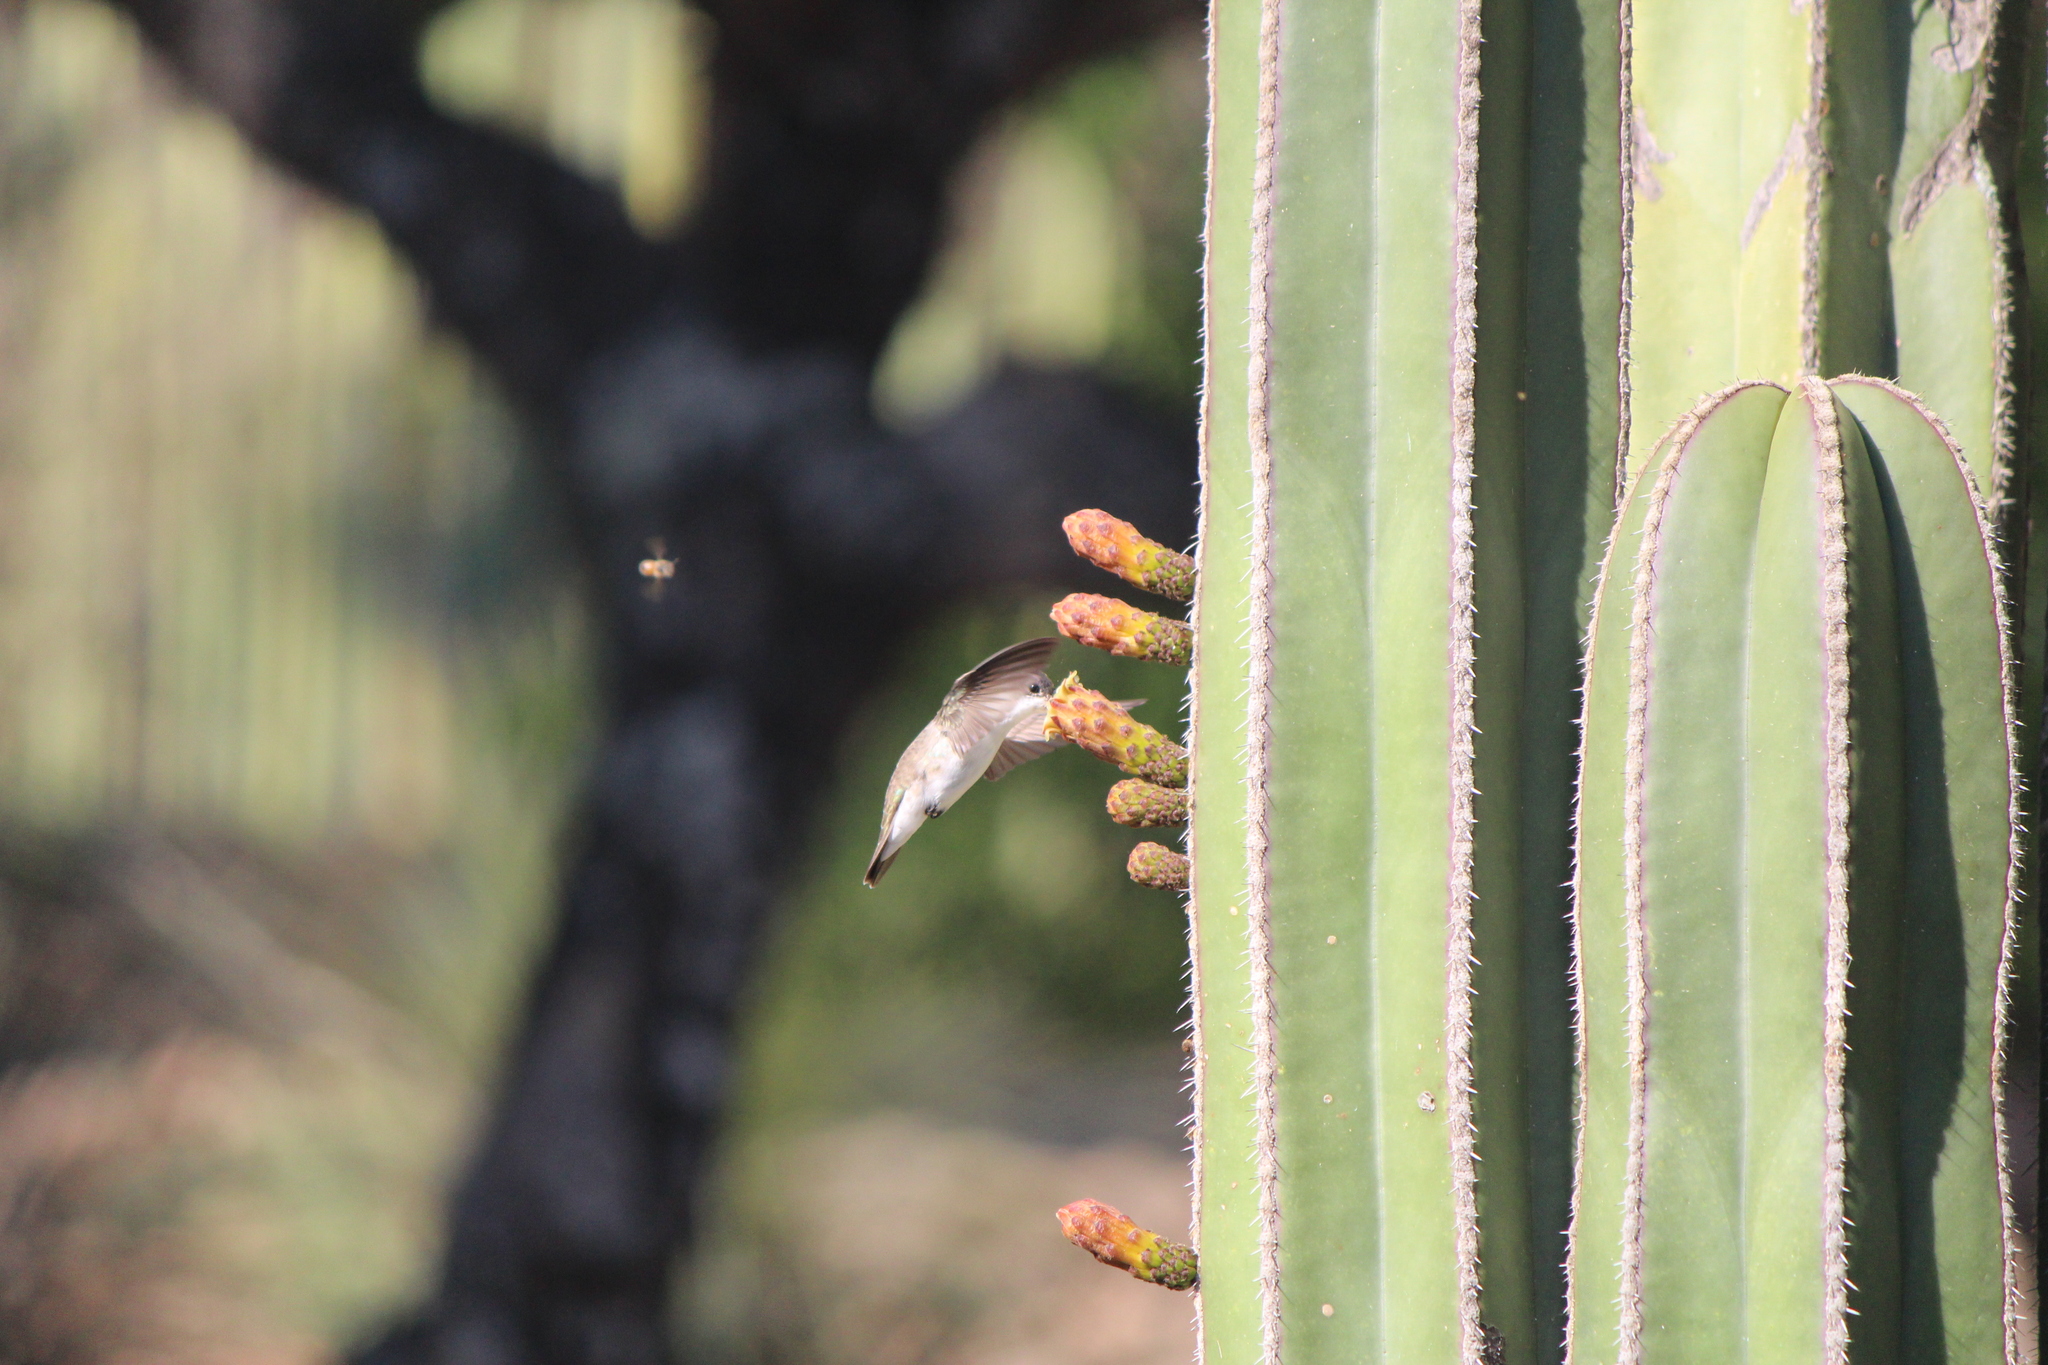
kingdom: Animalia
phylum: Chordata
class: Aves
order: Apodiformes
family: Trochilidae
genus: Leucolia
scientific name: Leucolia violiceps
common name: Violet-crowned hummingbird
